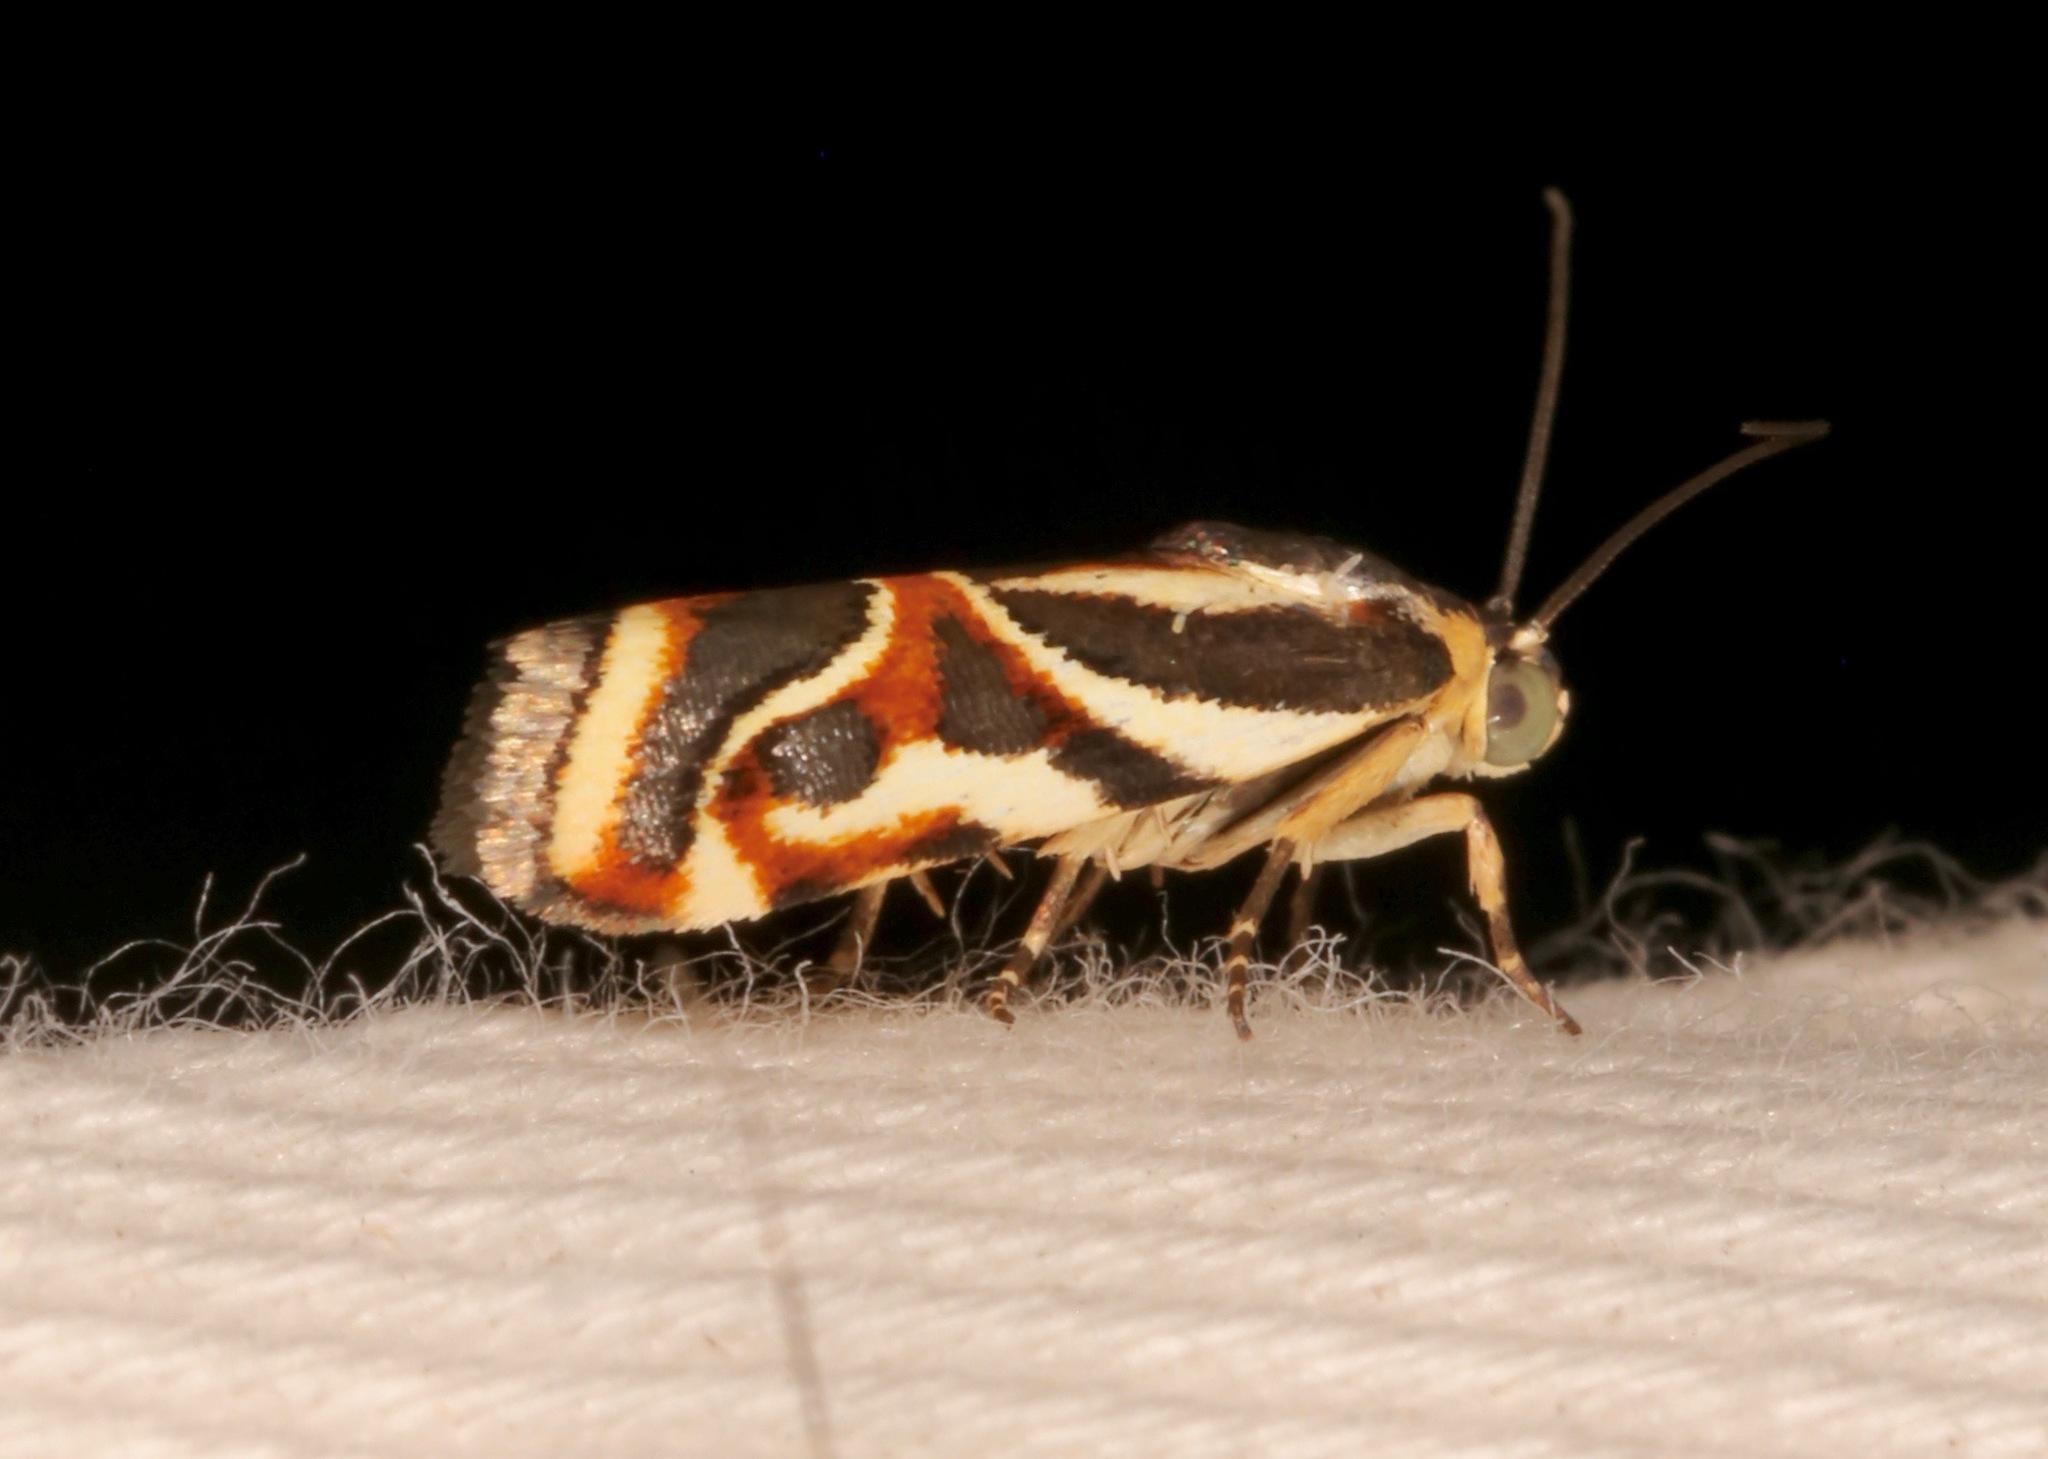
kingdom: Animalia
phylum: Arthropoda
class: Insecta
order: Lepidoptera
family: Noctuidae
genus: Spragueia
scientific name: Spragueia magnifica
